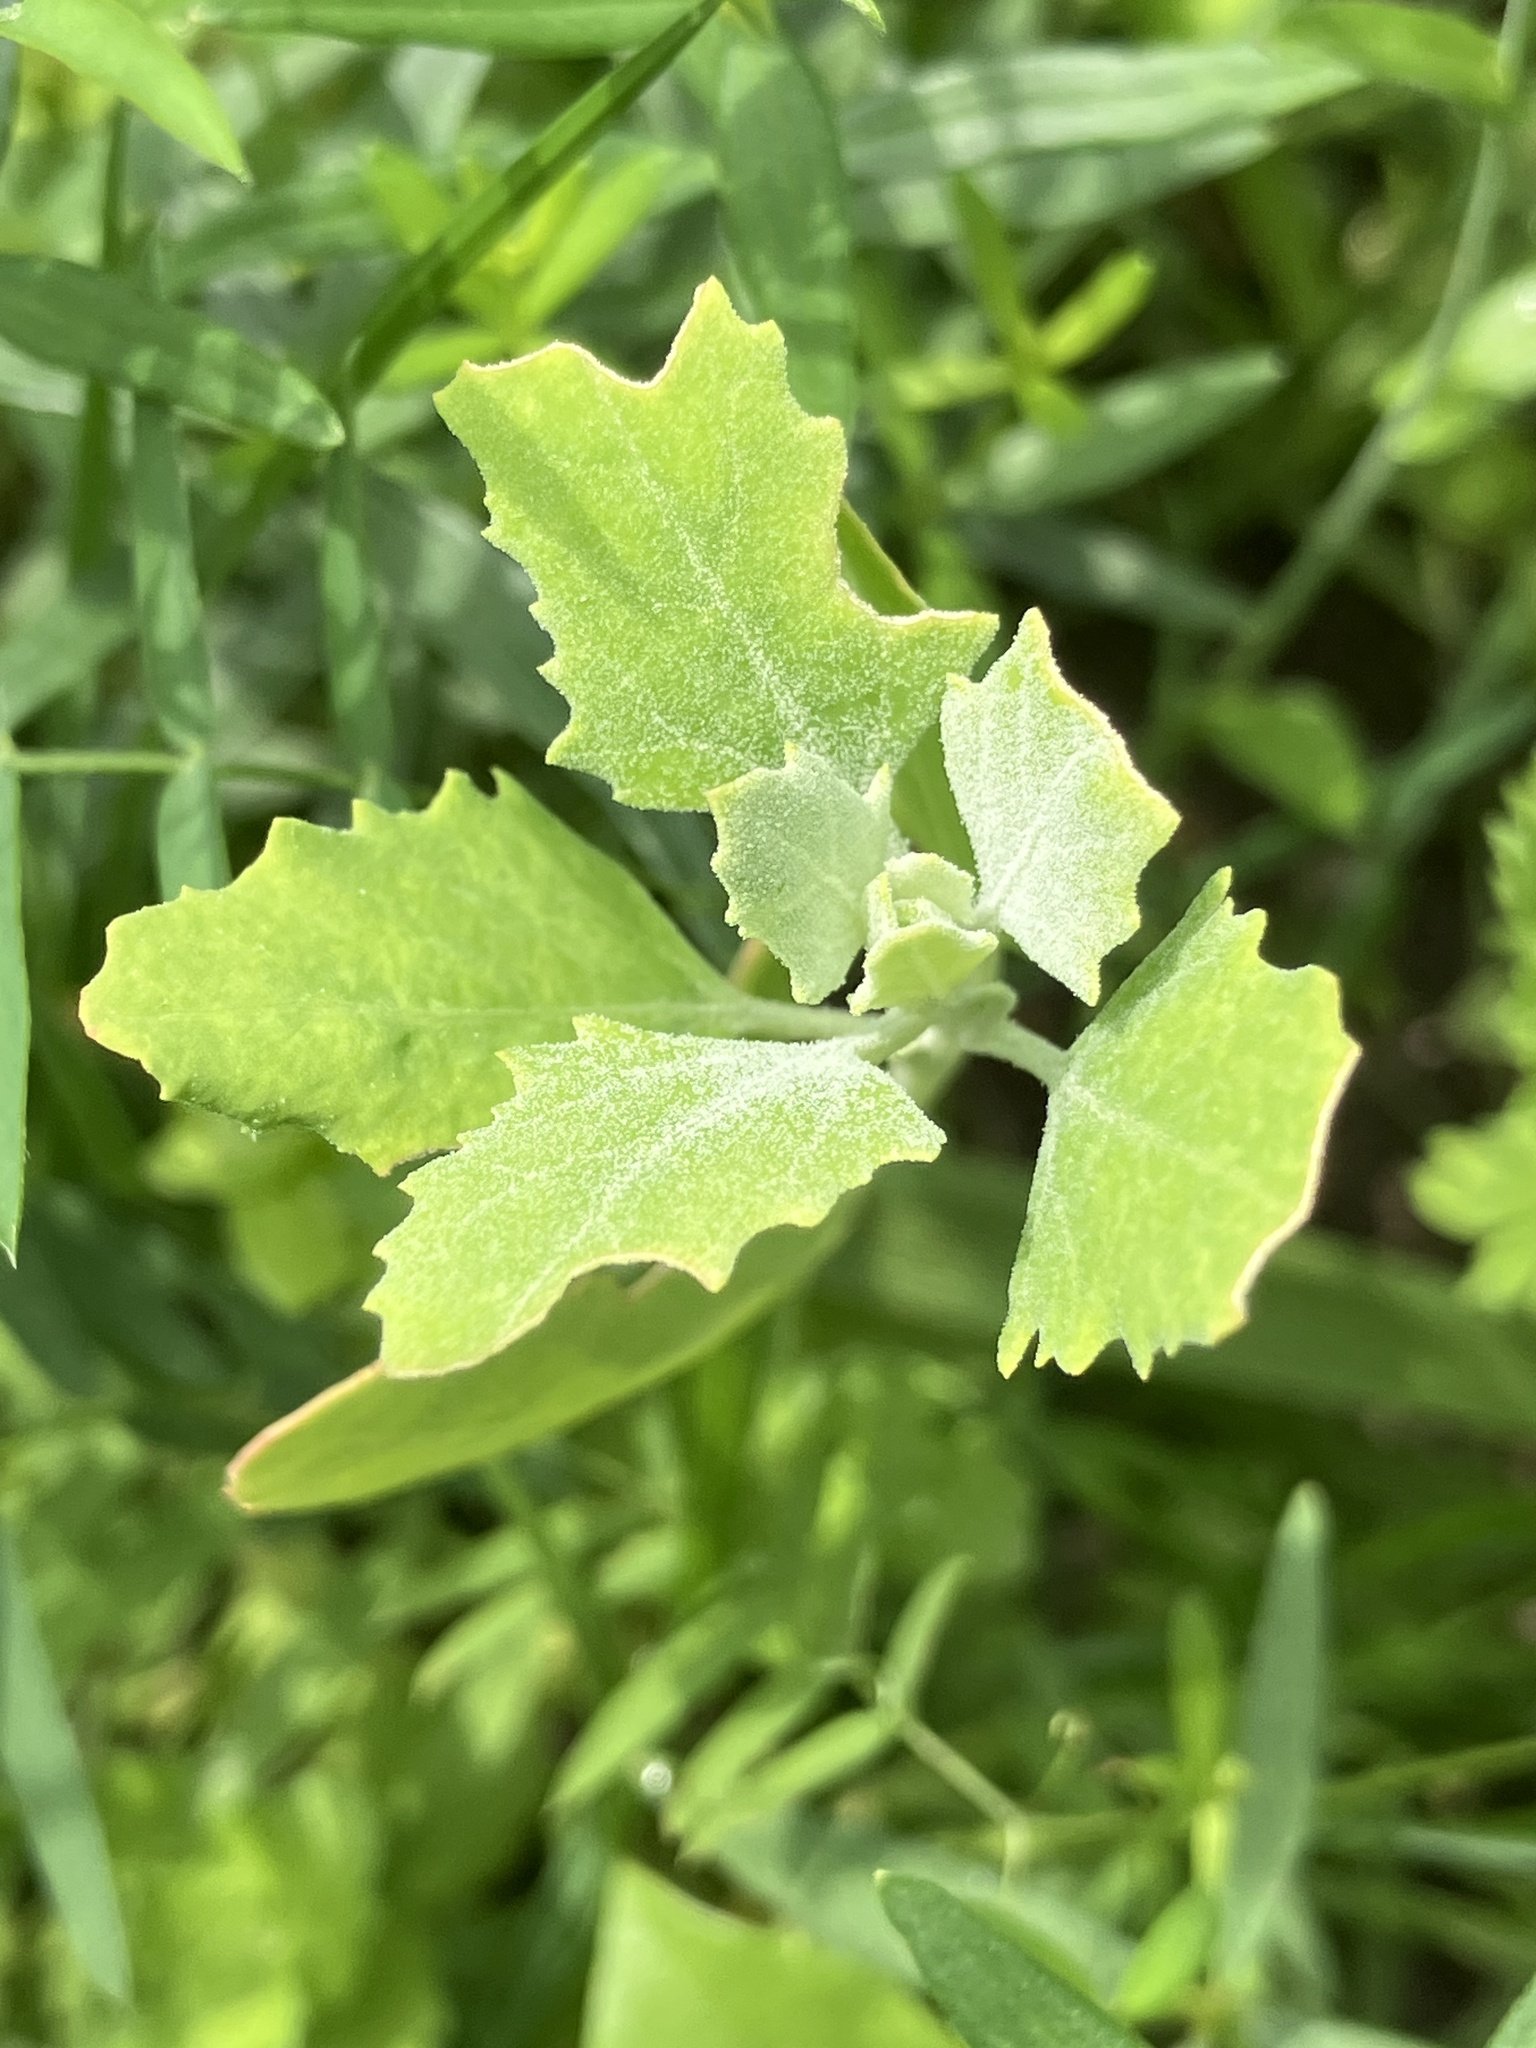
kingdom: Plantae
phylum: Tracheophyta
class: Magnoliopsida
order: Caryophyllales
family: Amaranthaceae
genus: Chenopodium
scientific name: Chenopodium album
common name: Fat-hen
